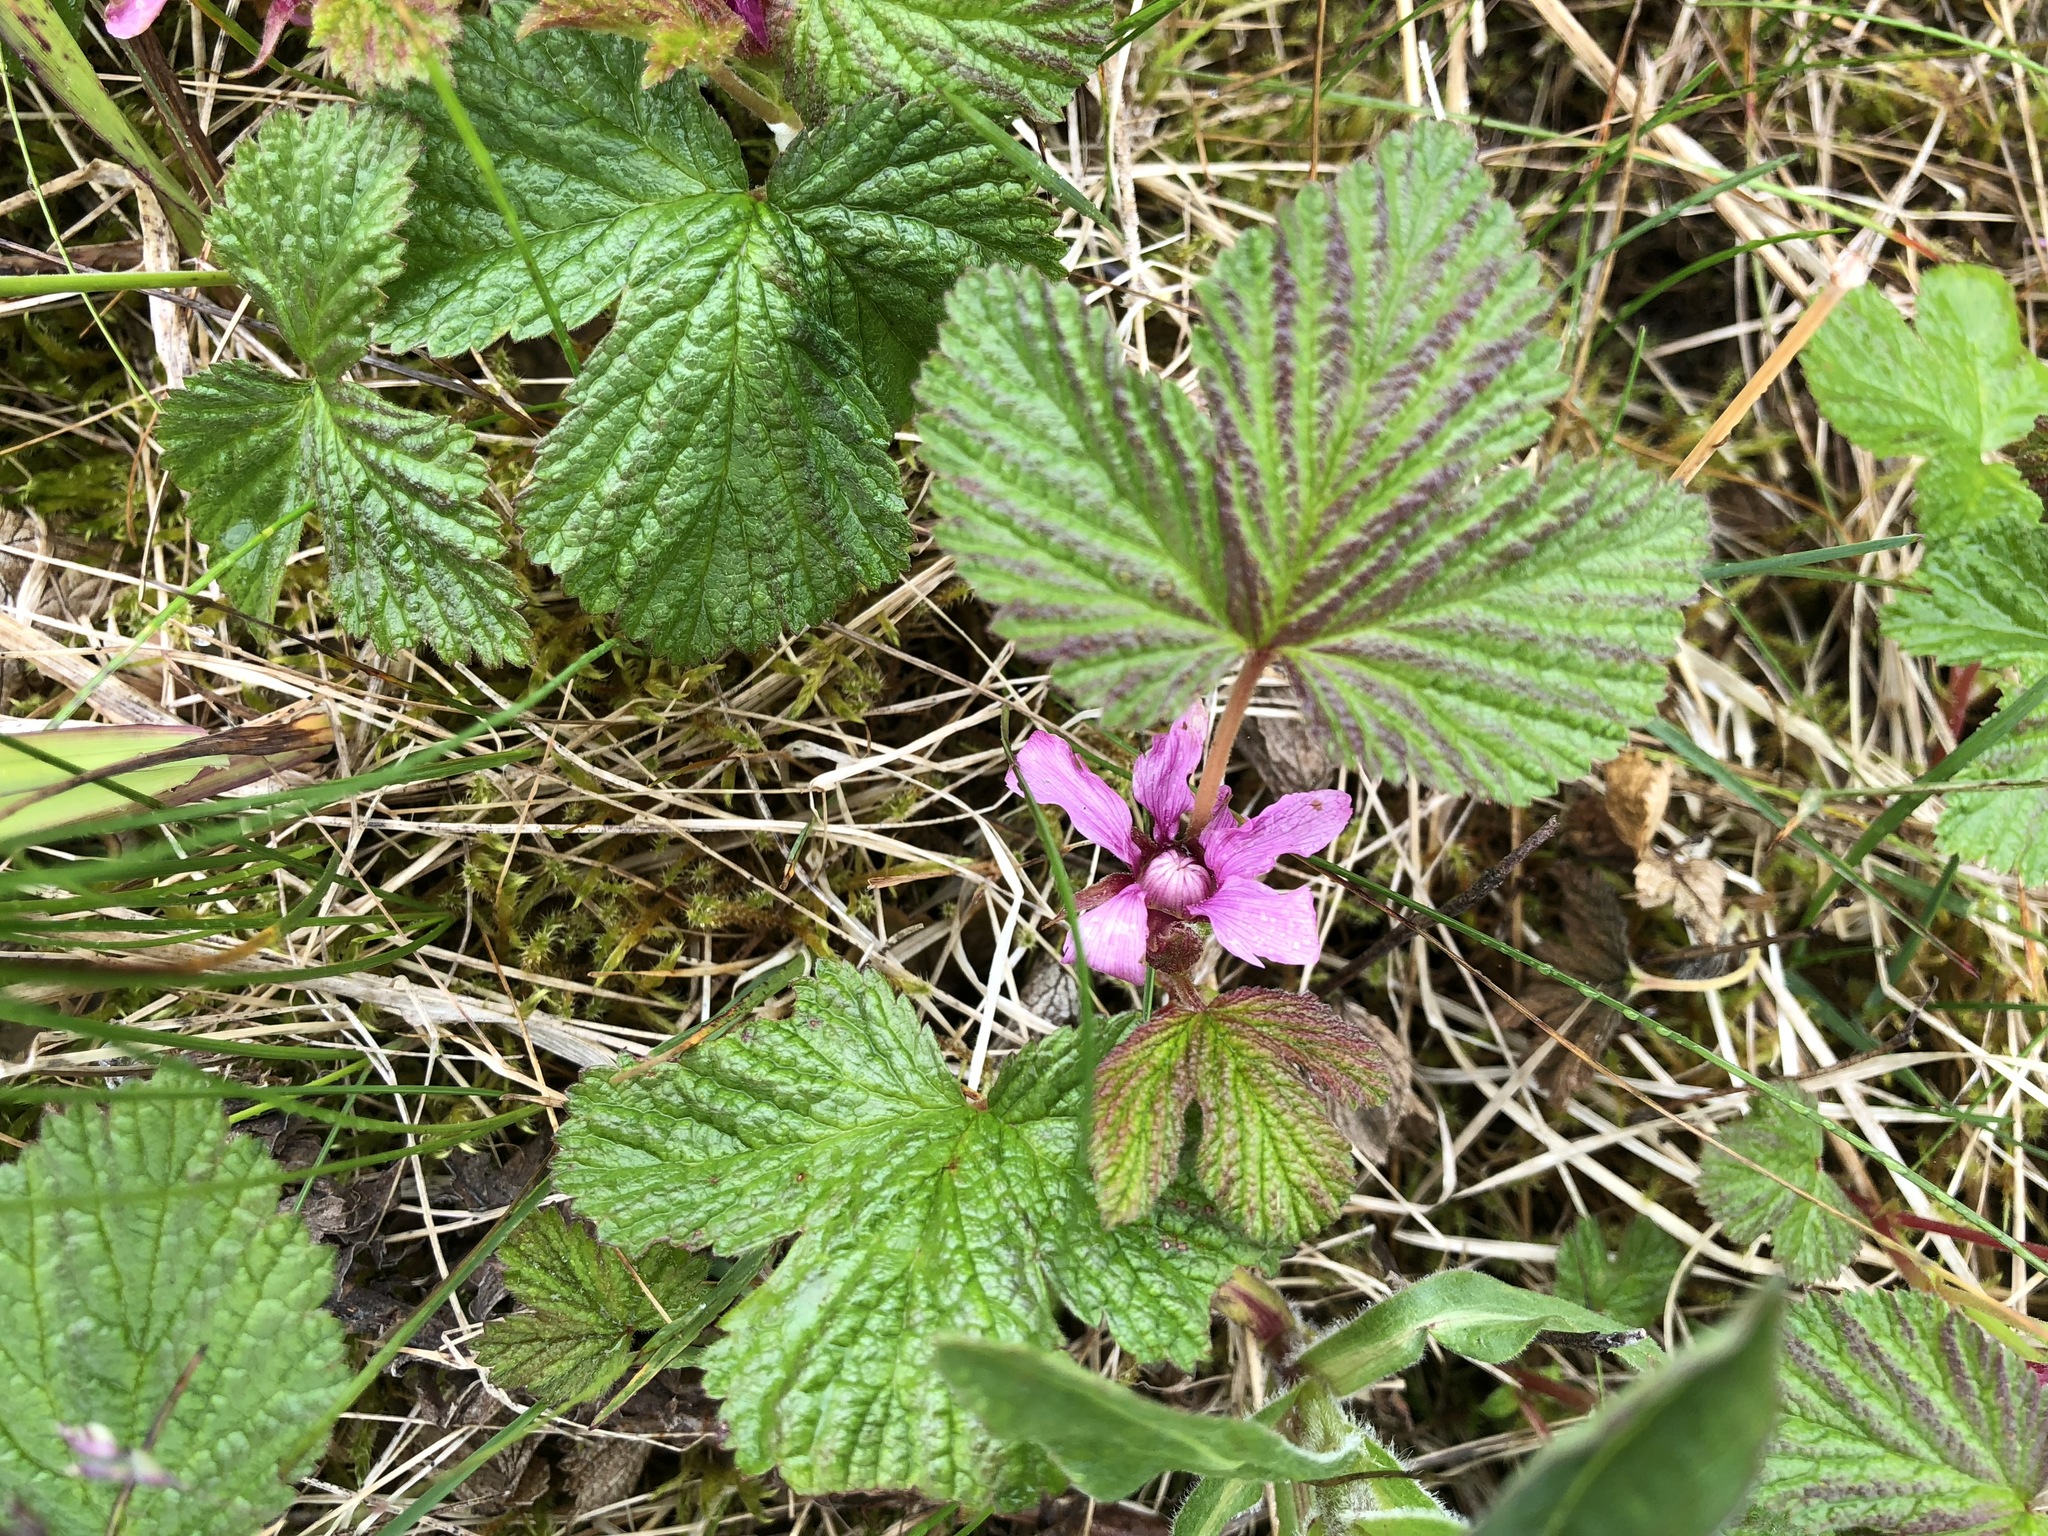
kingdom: Plantae
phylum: Tracheophyta
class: Magnoliopsida
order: Rosales
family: Rosaceae
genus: Rubus
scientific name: Rubus arcticus
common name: Arctic bramble
